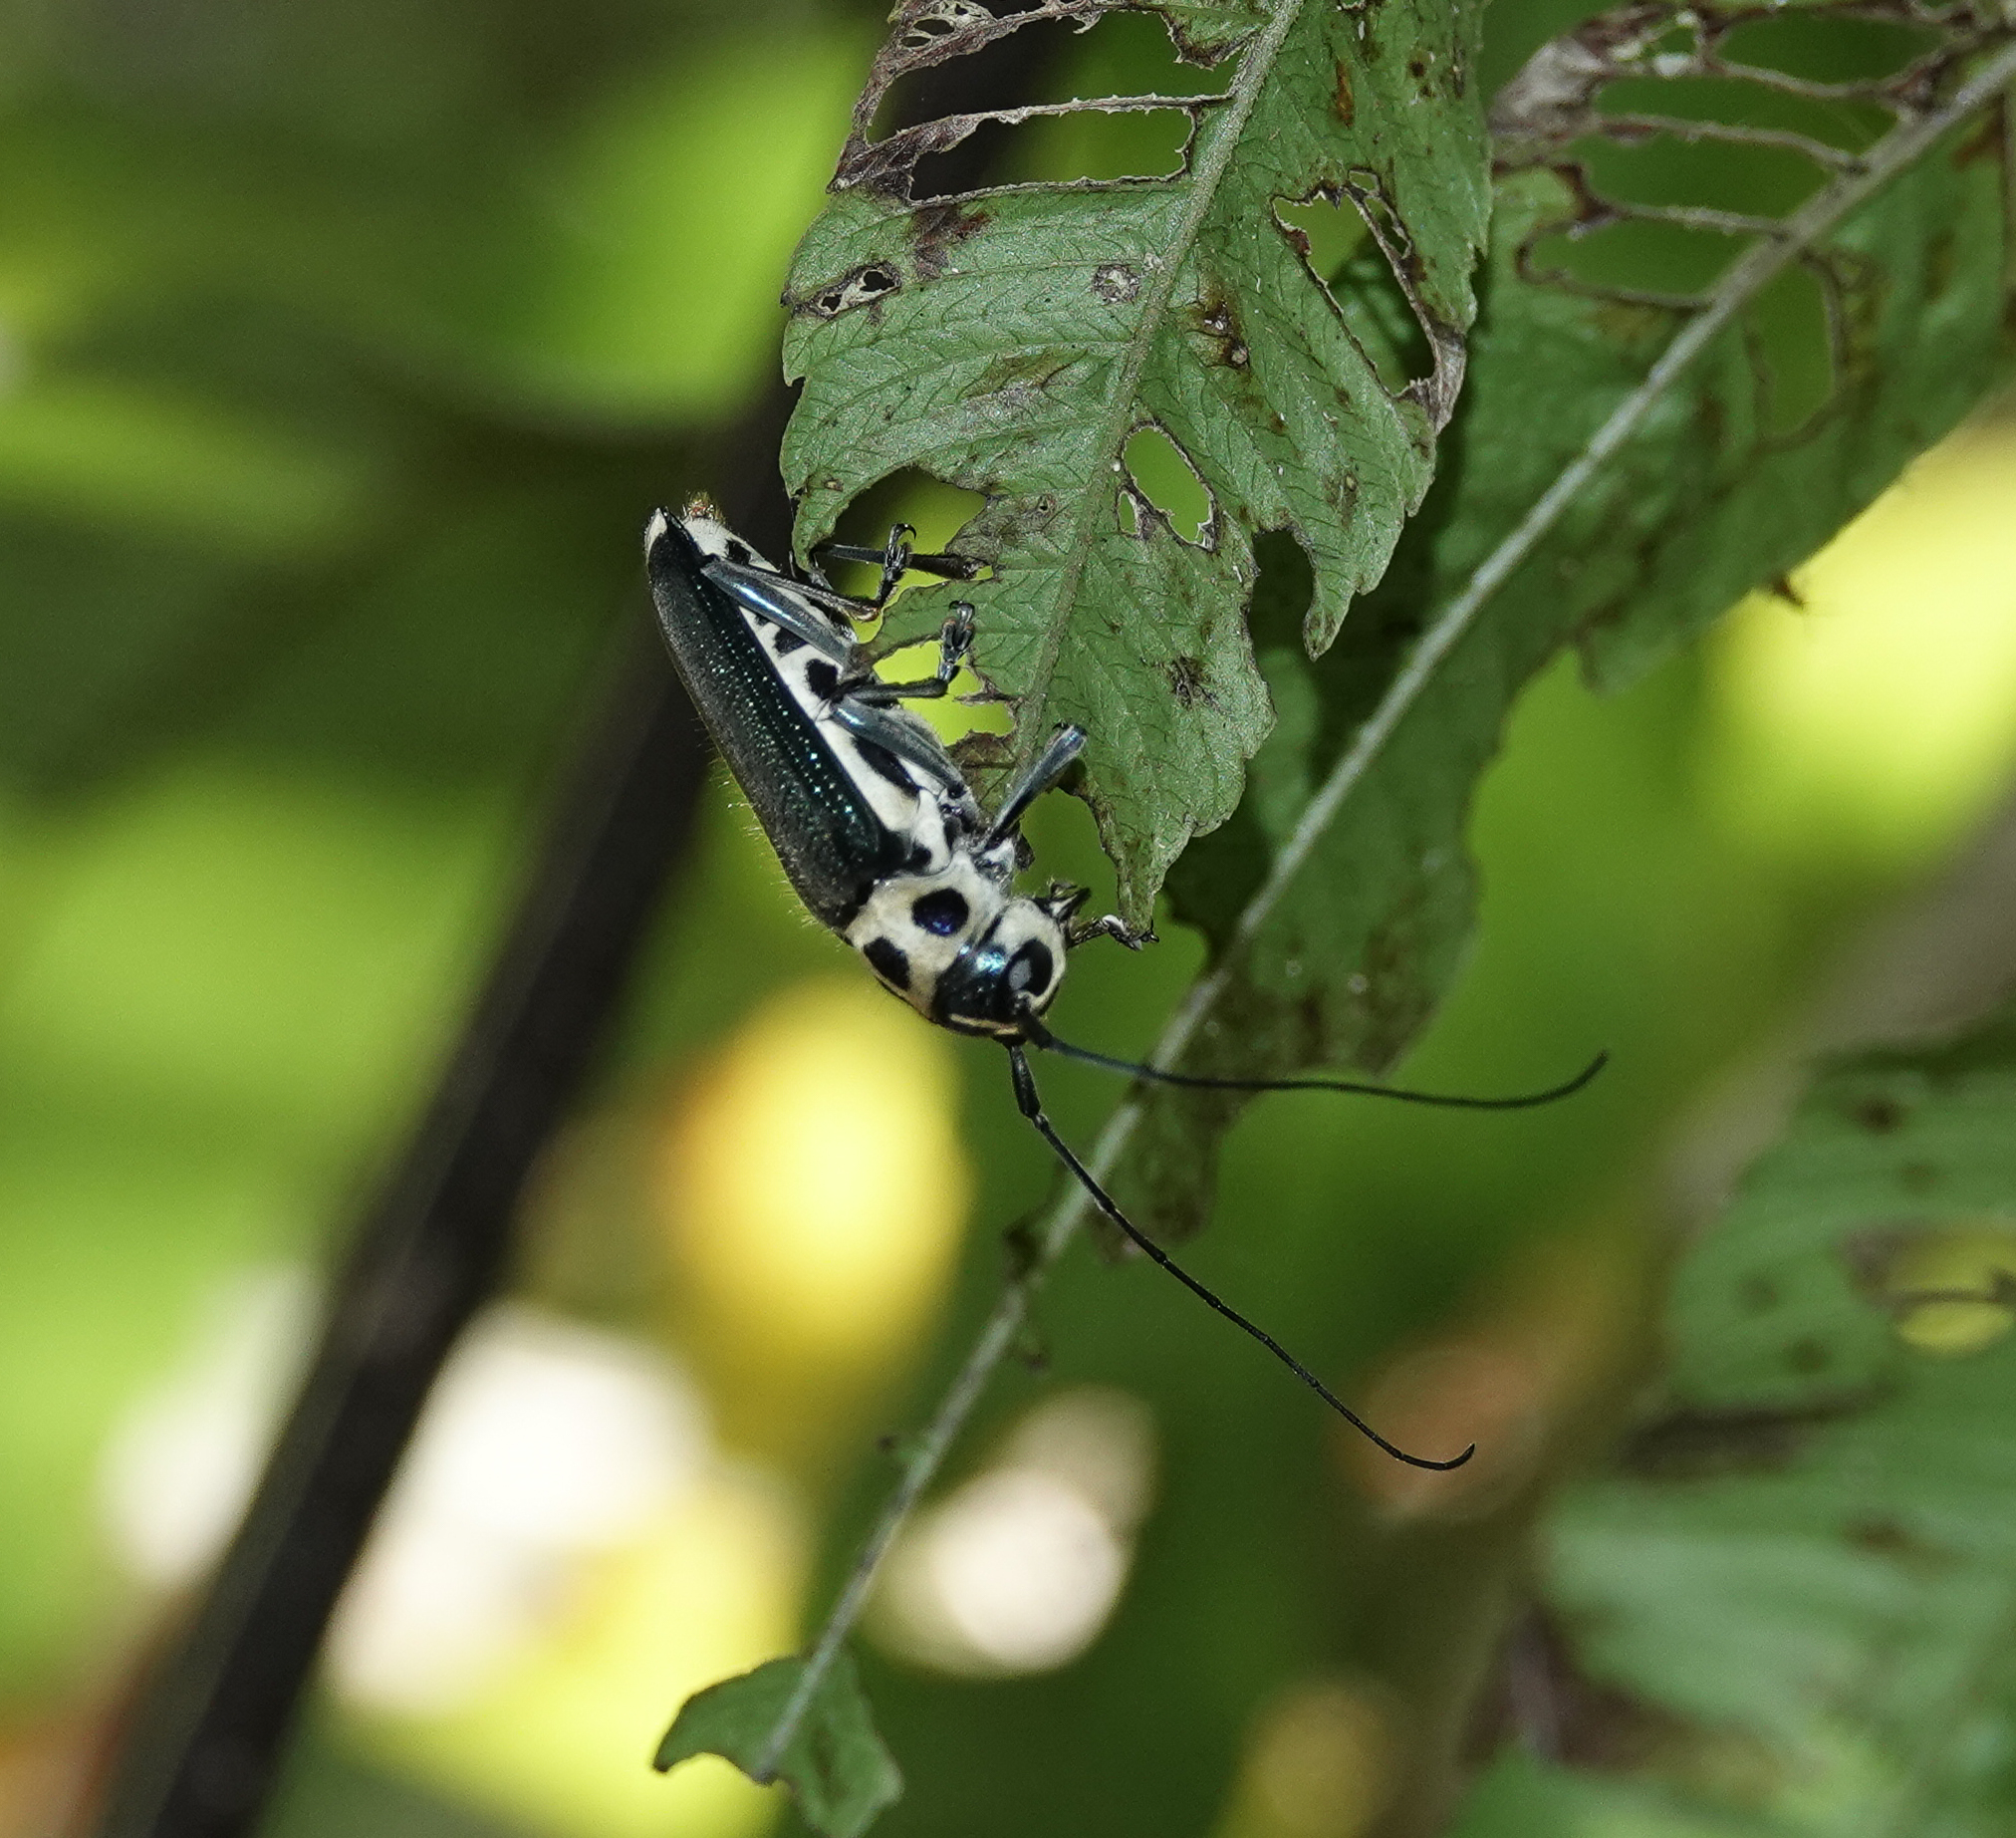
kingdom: Animalia
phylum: Arthropoda
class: Insecta
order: Coleoptera
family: Cerambycidae
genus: Glenea
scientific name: Glenea chalybeata
